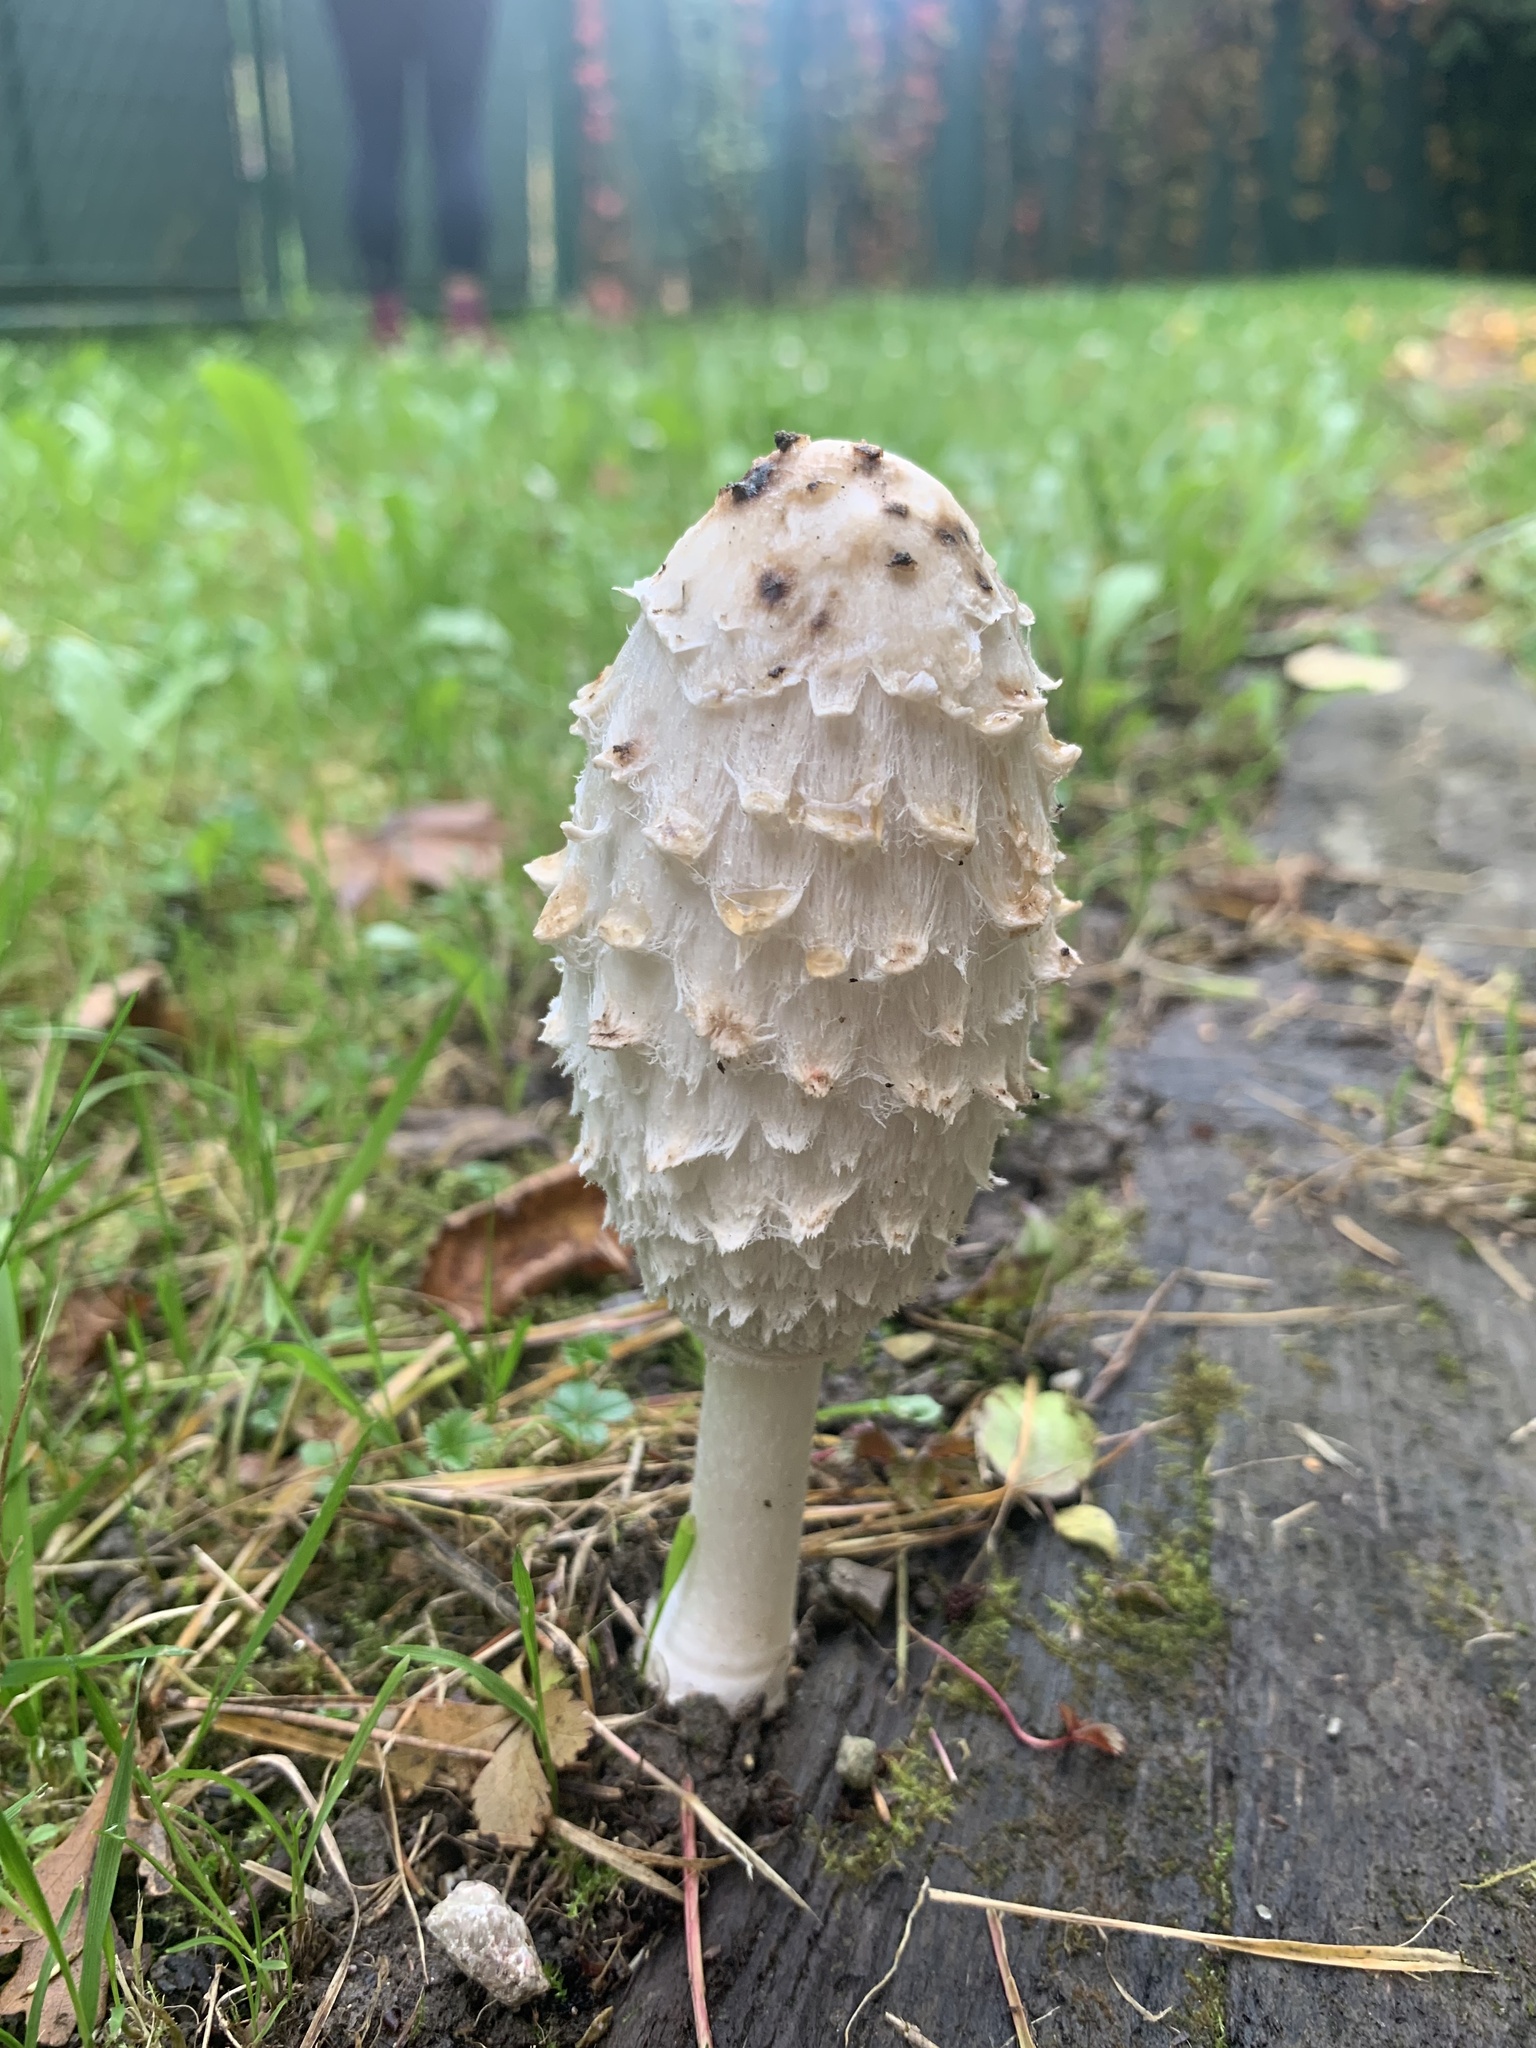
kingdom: Fungi
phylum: Basidiomycota
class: Agaricomycetes
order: Agaricales
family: Agaricaceae
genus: Coprinus
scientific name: Coprinus comatus
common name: Lawyer's wig
